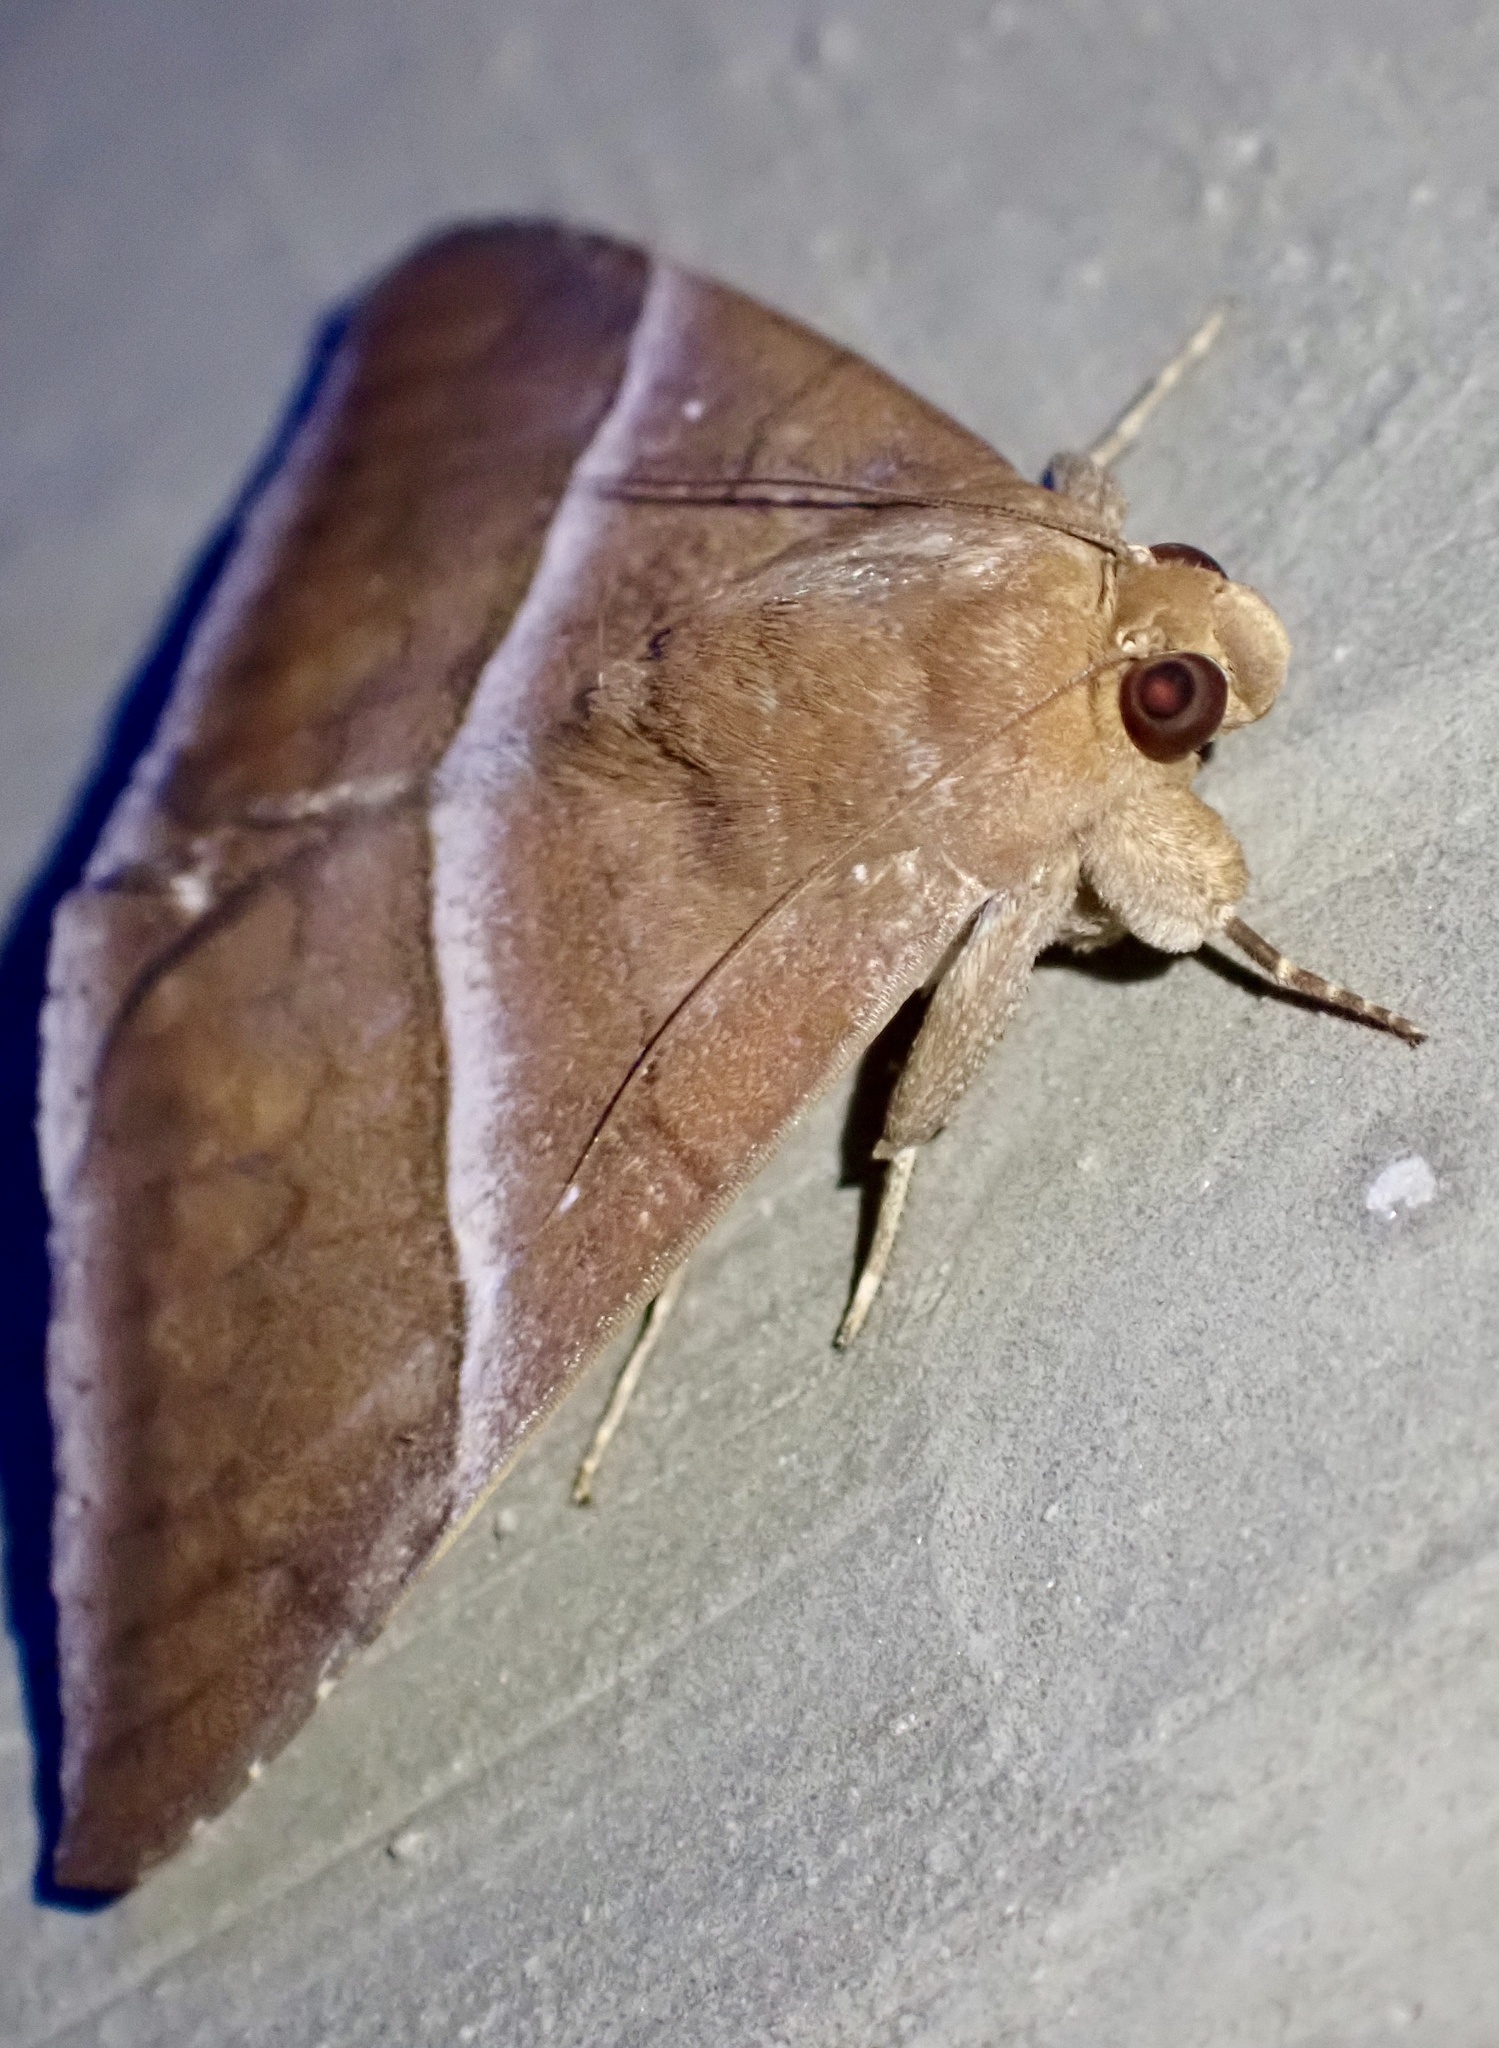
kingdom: Animalia
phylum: Arthropoda
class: Insecta
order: Lepidoptera
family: Erebidae
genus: Parallelia
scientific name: Parallelia
